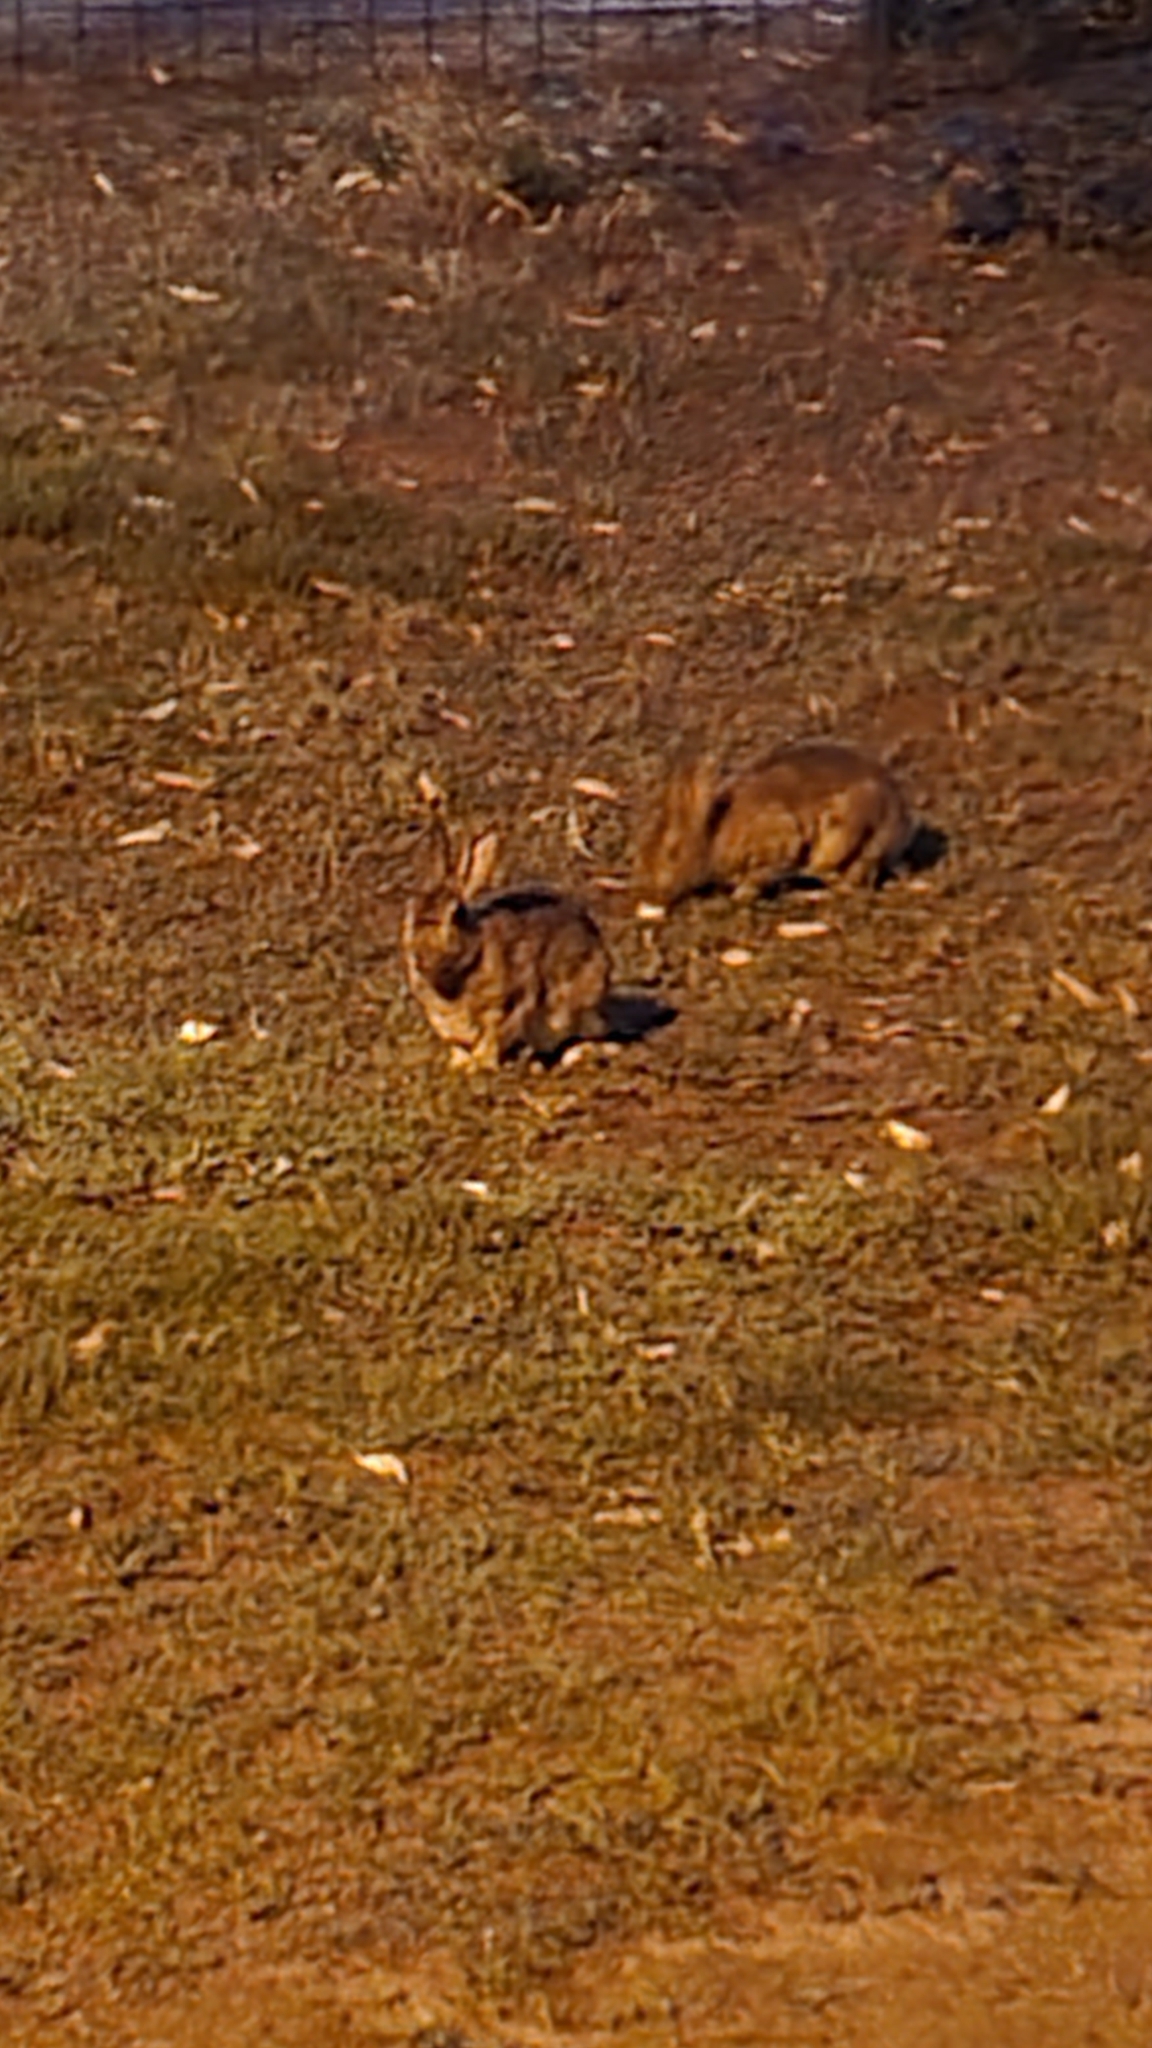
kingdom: Animalia
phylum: Chordata
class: Mammalia
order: Lagomorpha
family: Leporidae
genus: Oryctolagus
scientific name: Oryctolagus cuniculus
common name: European rabbit
